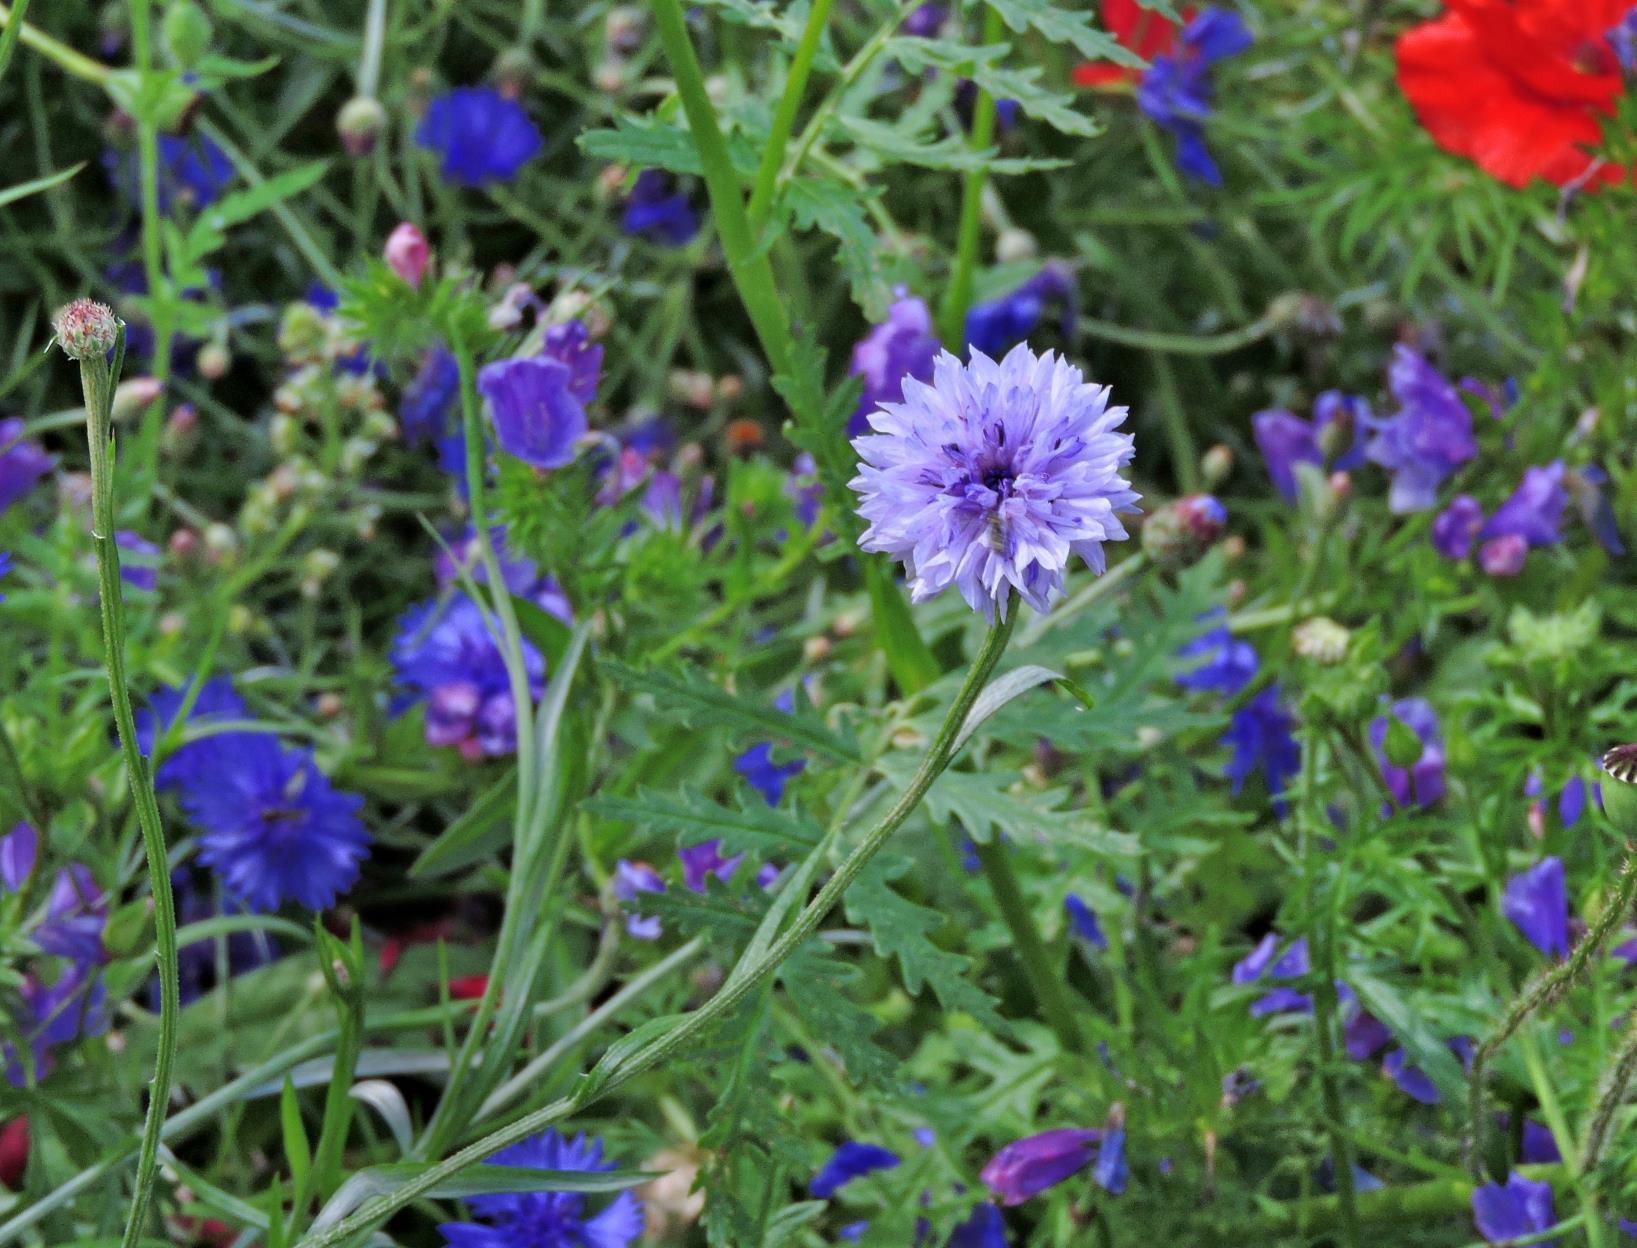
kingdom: Plantae
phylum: Tracheophyta
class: Magnoliopsida
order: Asterales
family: Asteraceae
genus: Centaurea
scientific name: Centaurea cyanus
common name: Cornflower
